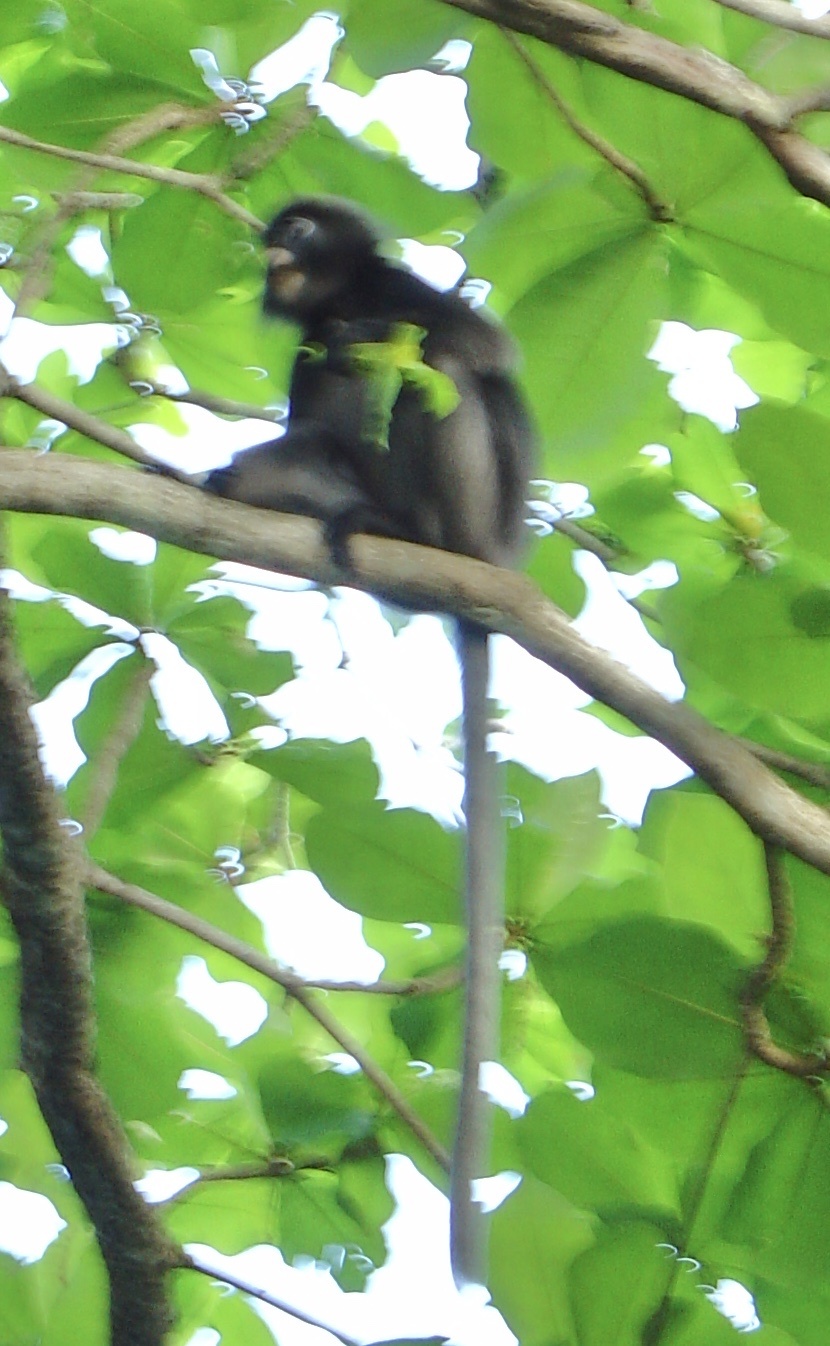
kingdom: Animalia
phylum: Chordata
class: Mammalia
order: Primates
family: Cercopithecidae
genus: Trachypithecus
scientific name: Trachypithecus obscurus
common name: Dusky leaf-monkey
